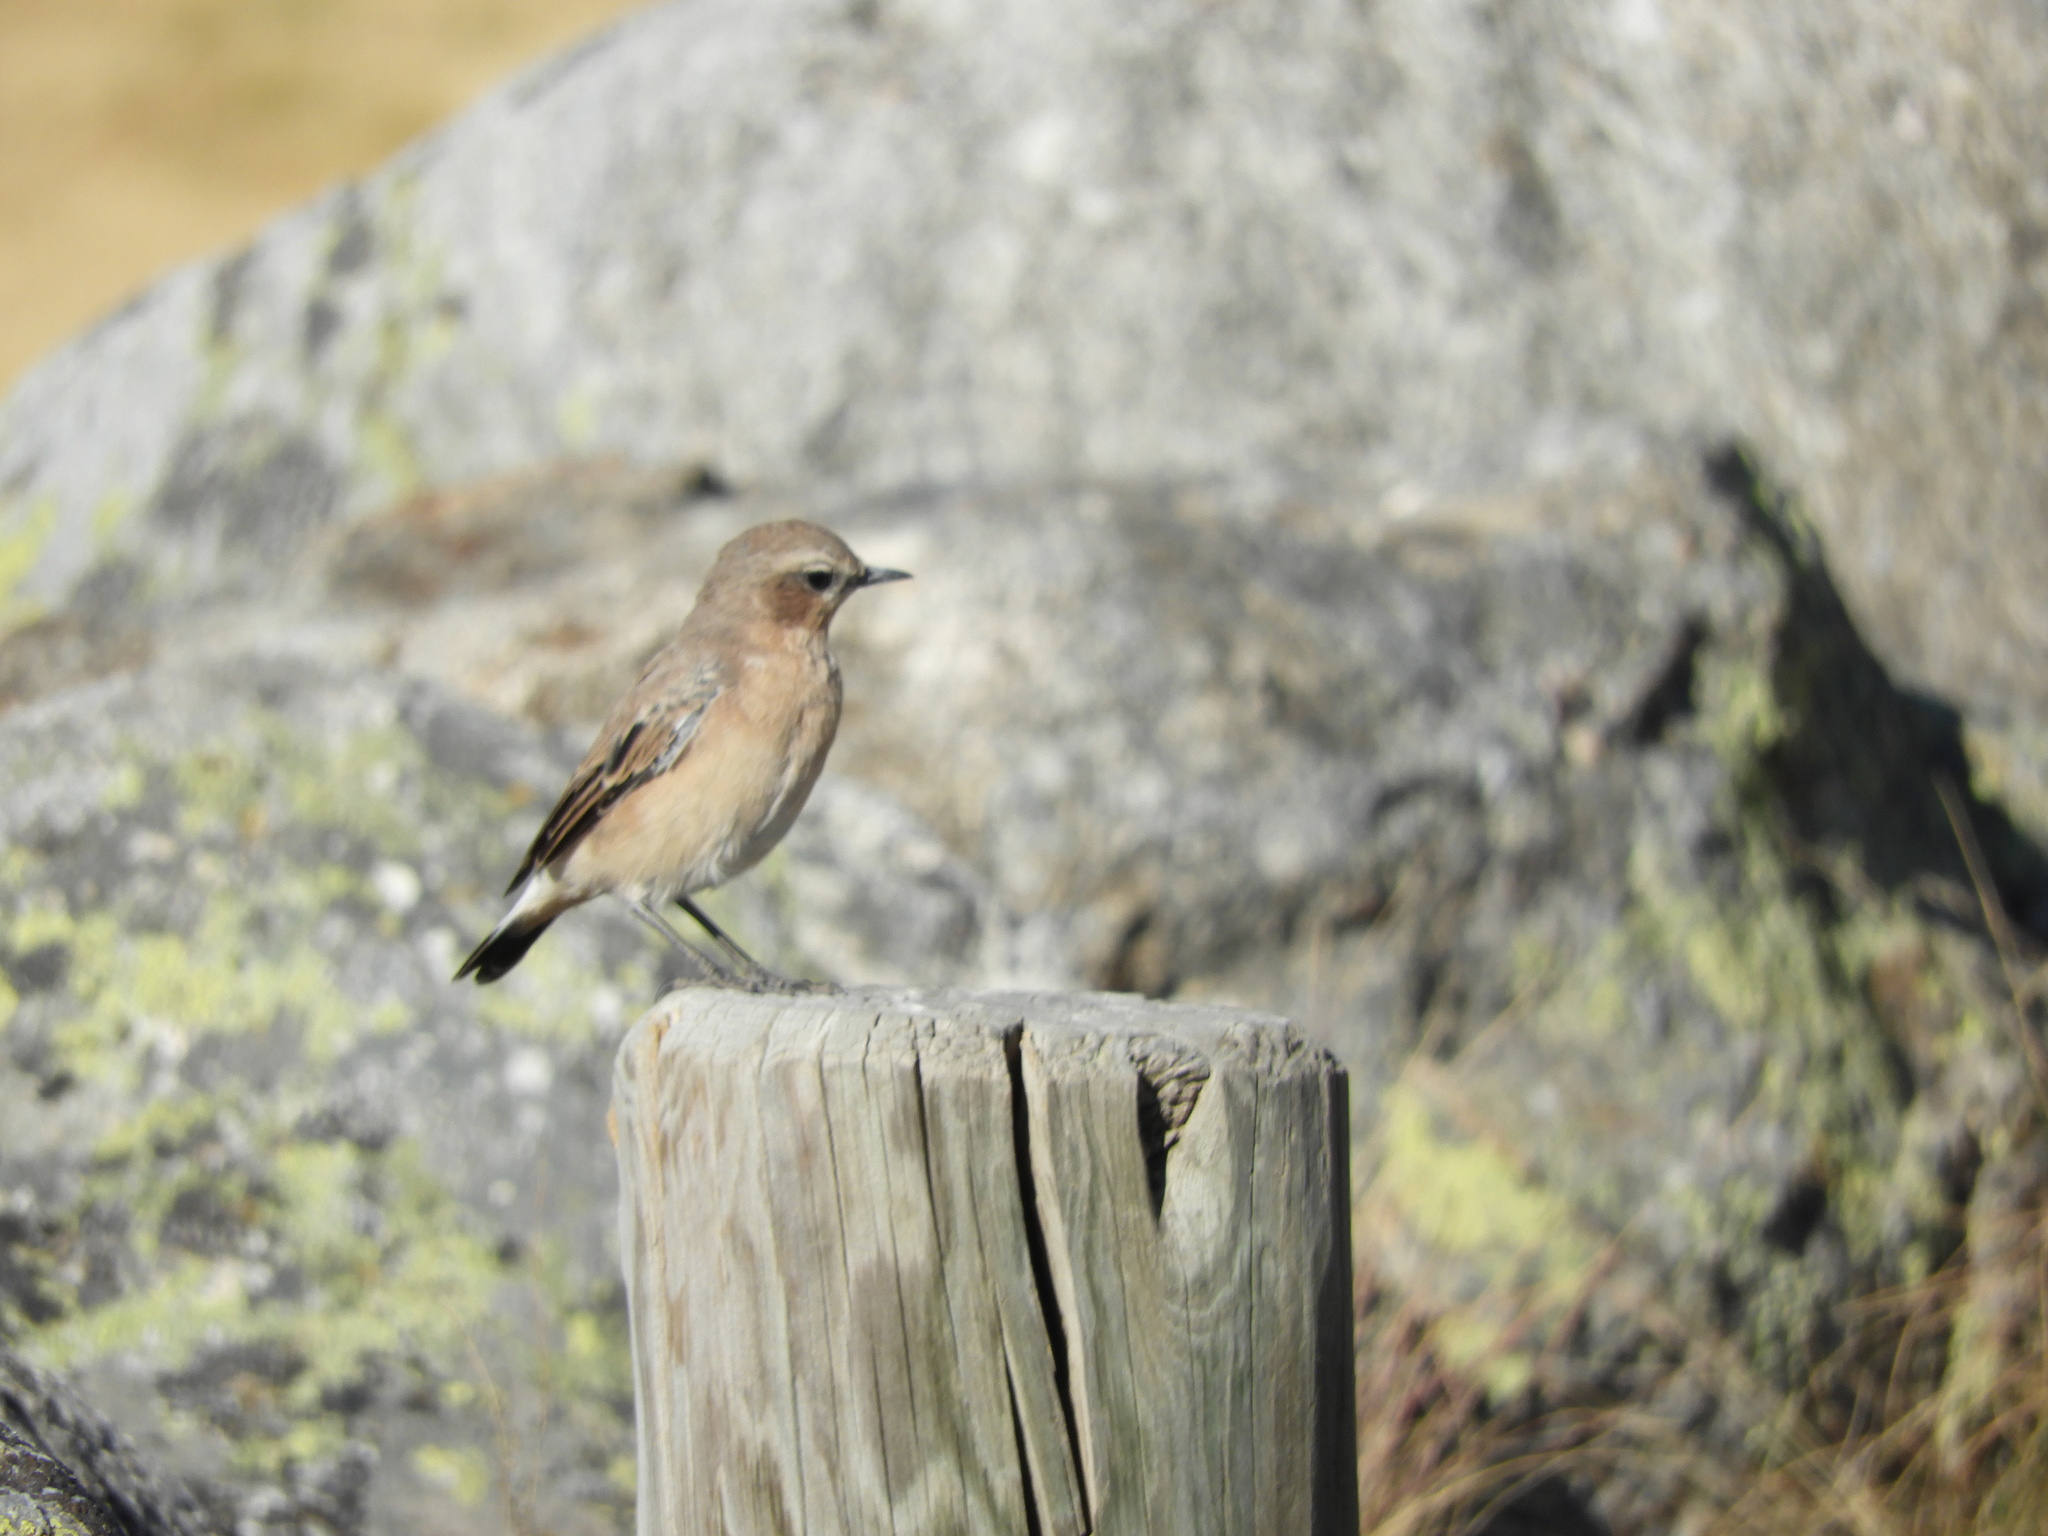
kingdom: Animalia
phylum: Chordata
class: Aves
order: Passeriformes
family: Muscicapidae
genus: Oenanthe
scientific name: Oenanthe oenanthe
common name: Northern wheatear
